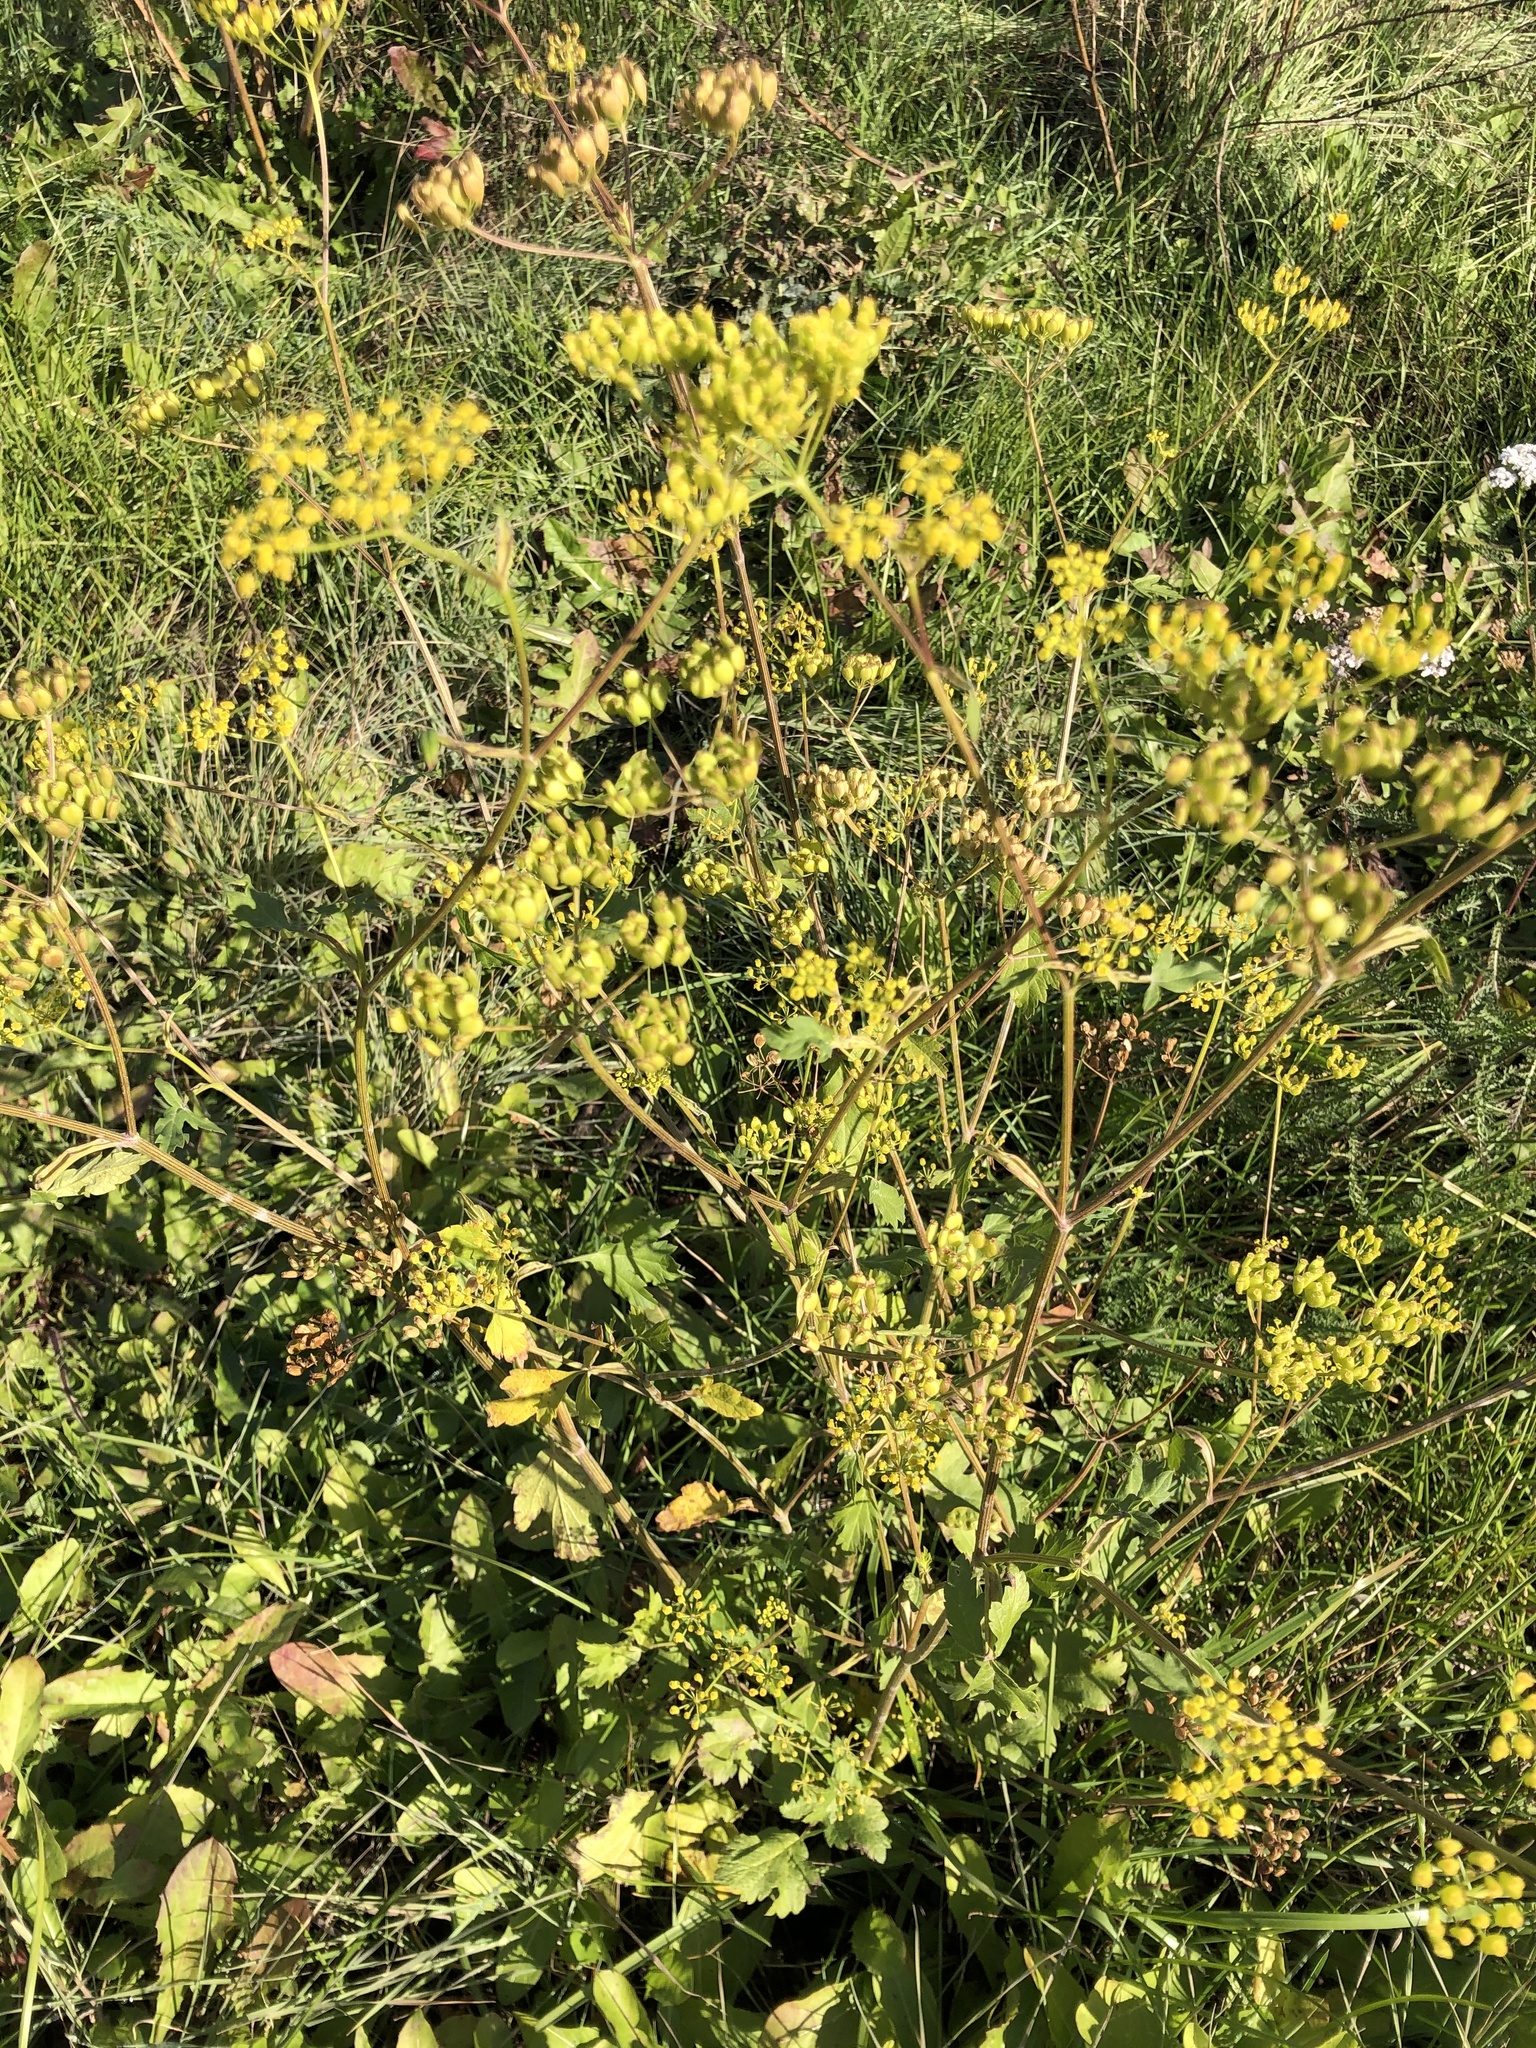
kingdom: Plantae
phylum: Tracheophyta
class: Magnoliopsida
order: Apiales
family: Apiaceae
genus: Pastinaca
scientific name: Pastinaca sativa
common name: Wild parsnip
